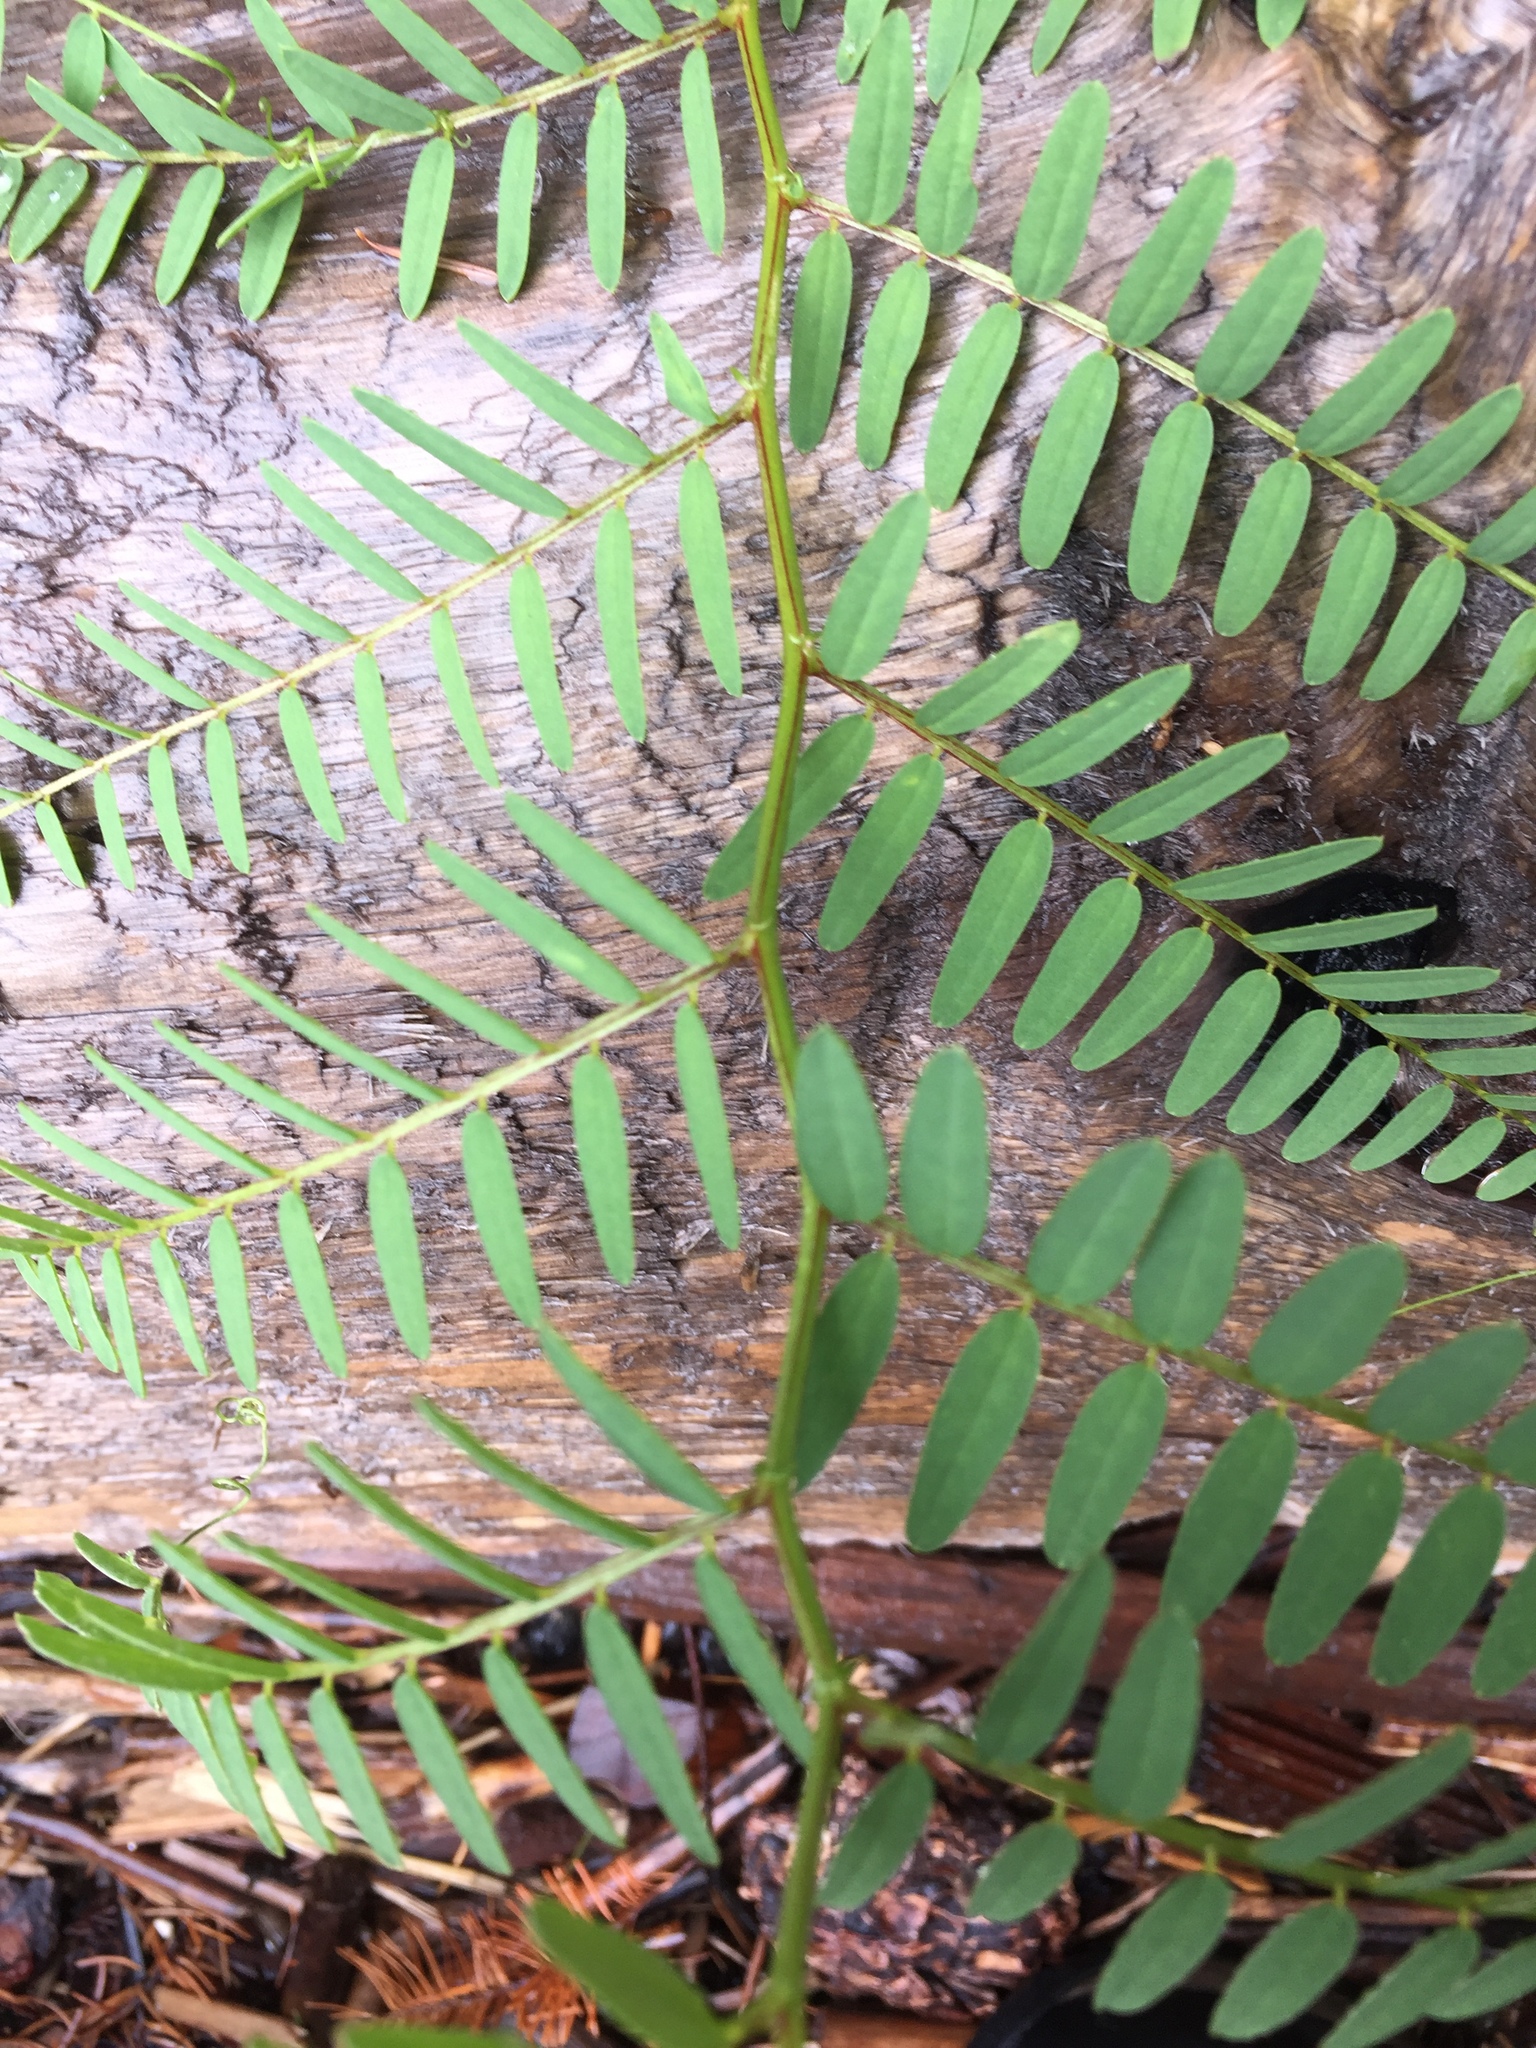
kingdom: Plantae
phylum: Tracheophyta
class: Magnoliopsida
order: Fabales
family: Fabaceae
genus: Vicia
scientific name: Vicia
